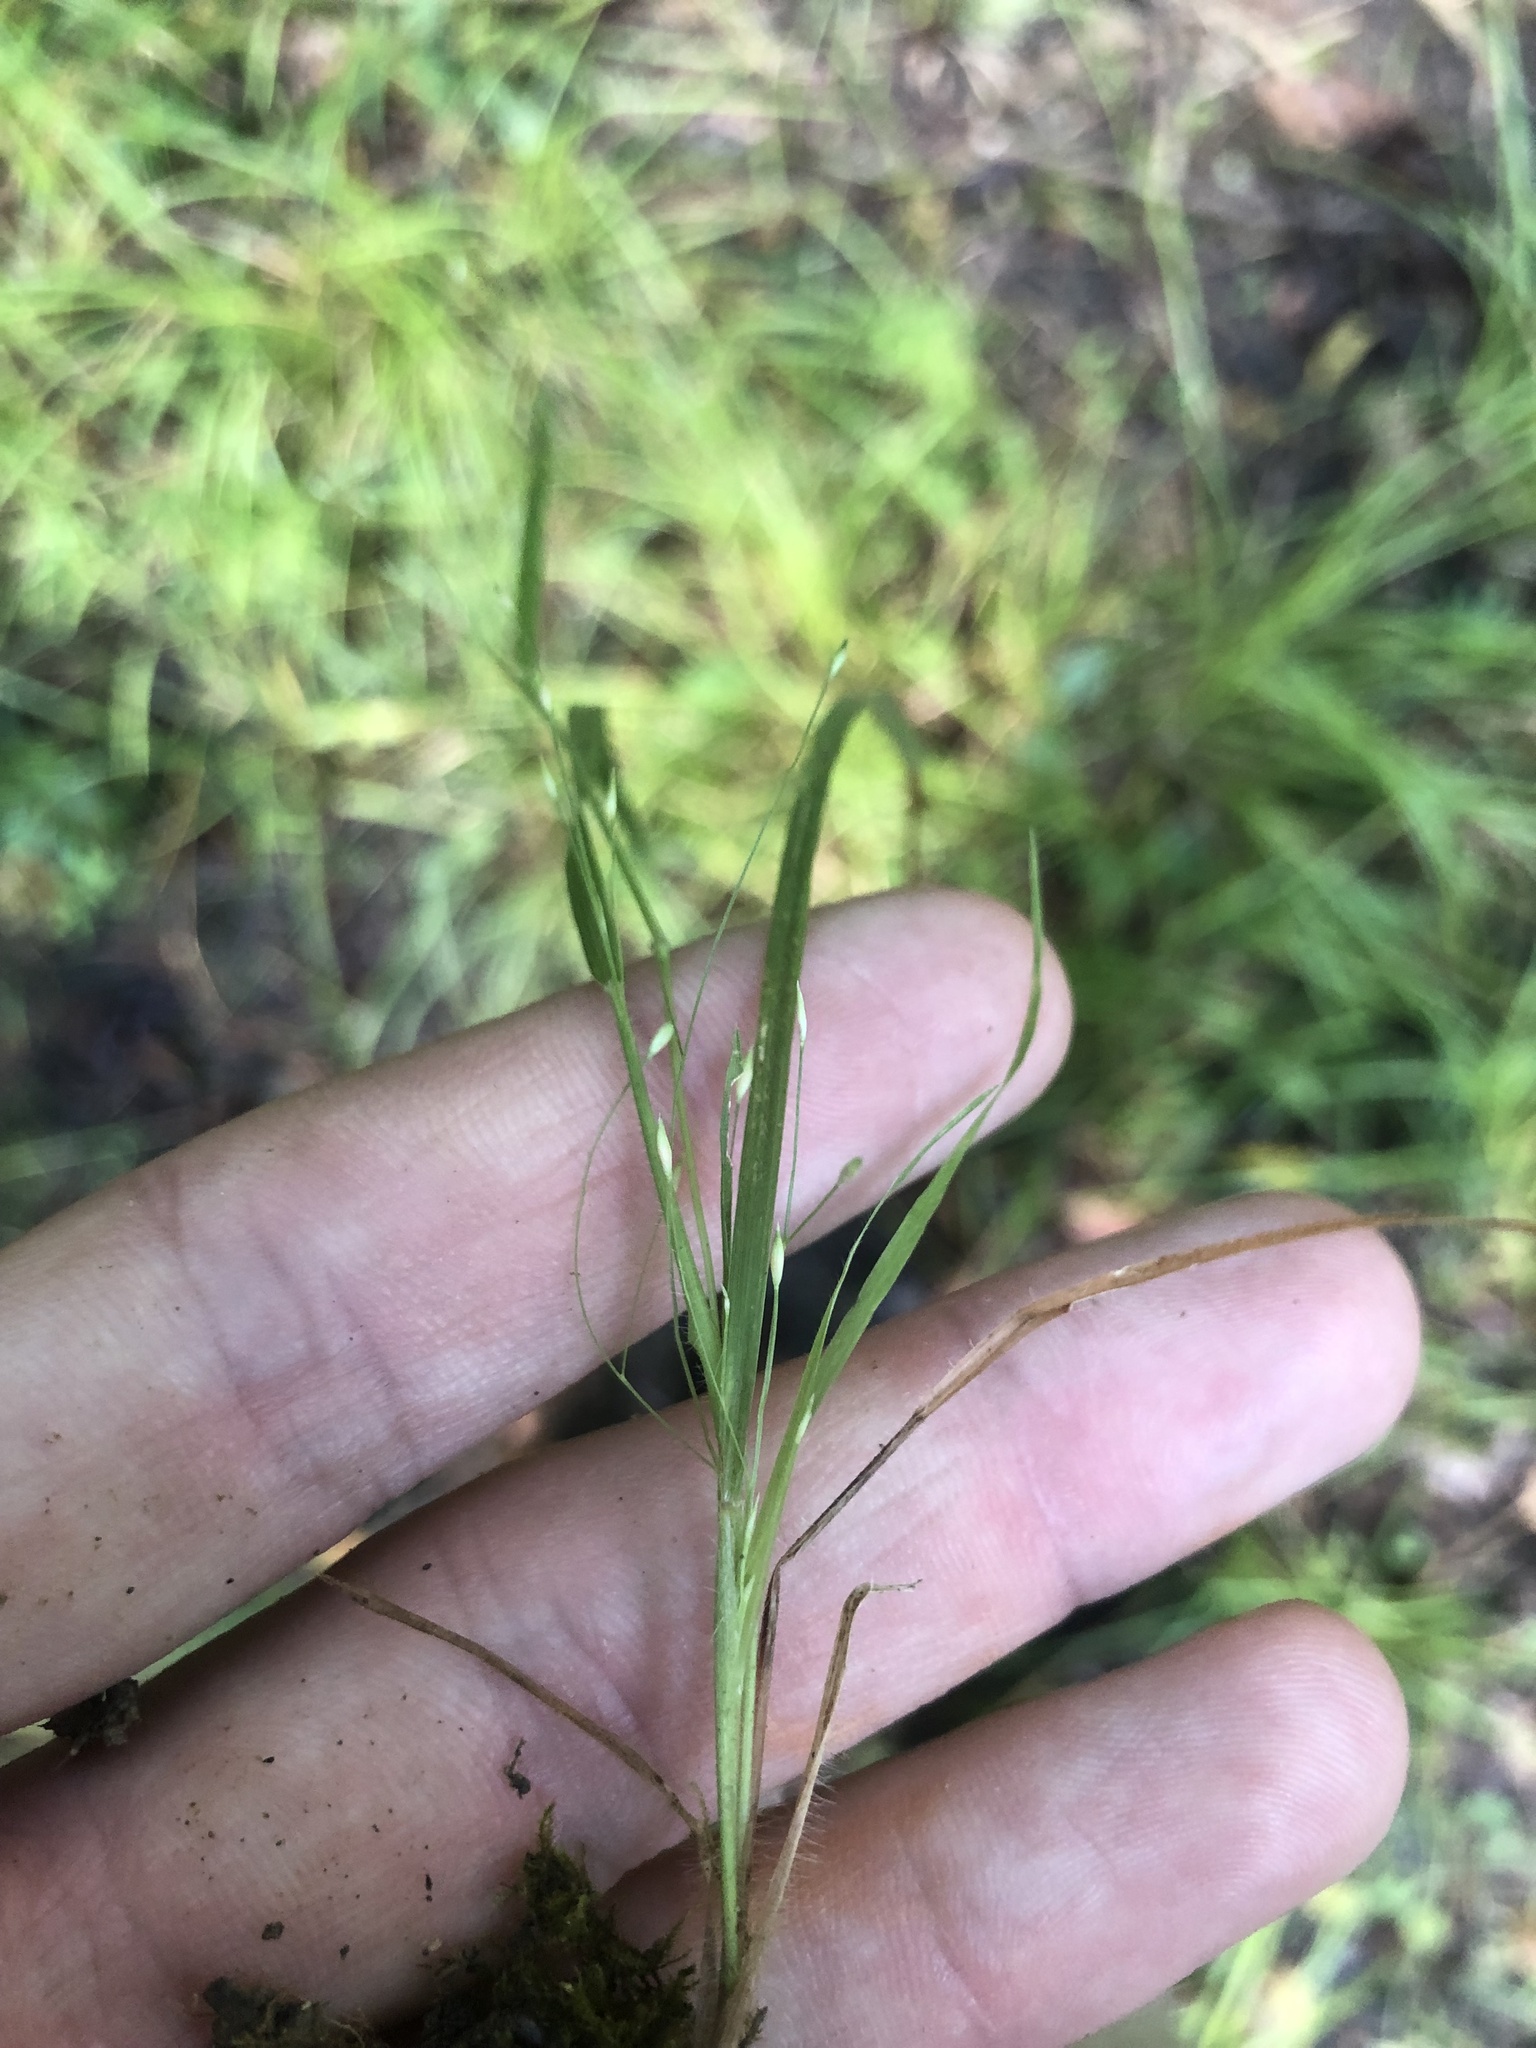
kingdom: Plantae
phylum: Tracheophyta
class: Liliopsida
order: Poales
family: Poaceae
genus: Panicum
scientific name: Panicum flexile
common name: Wiry panicgrass
